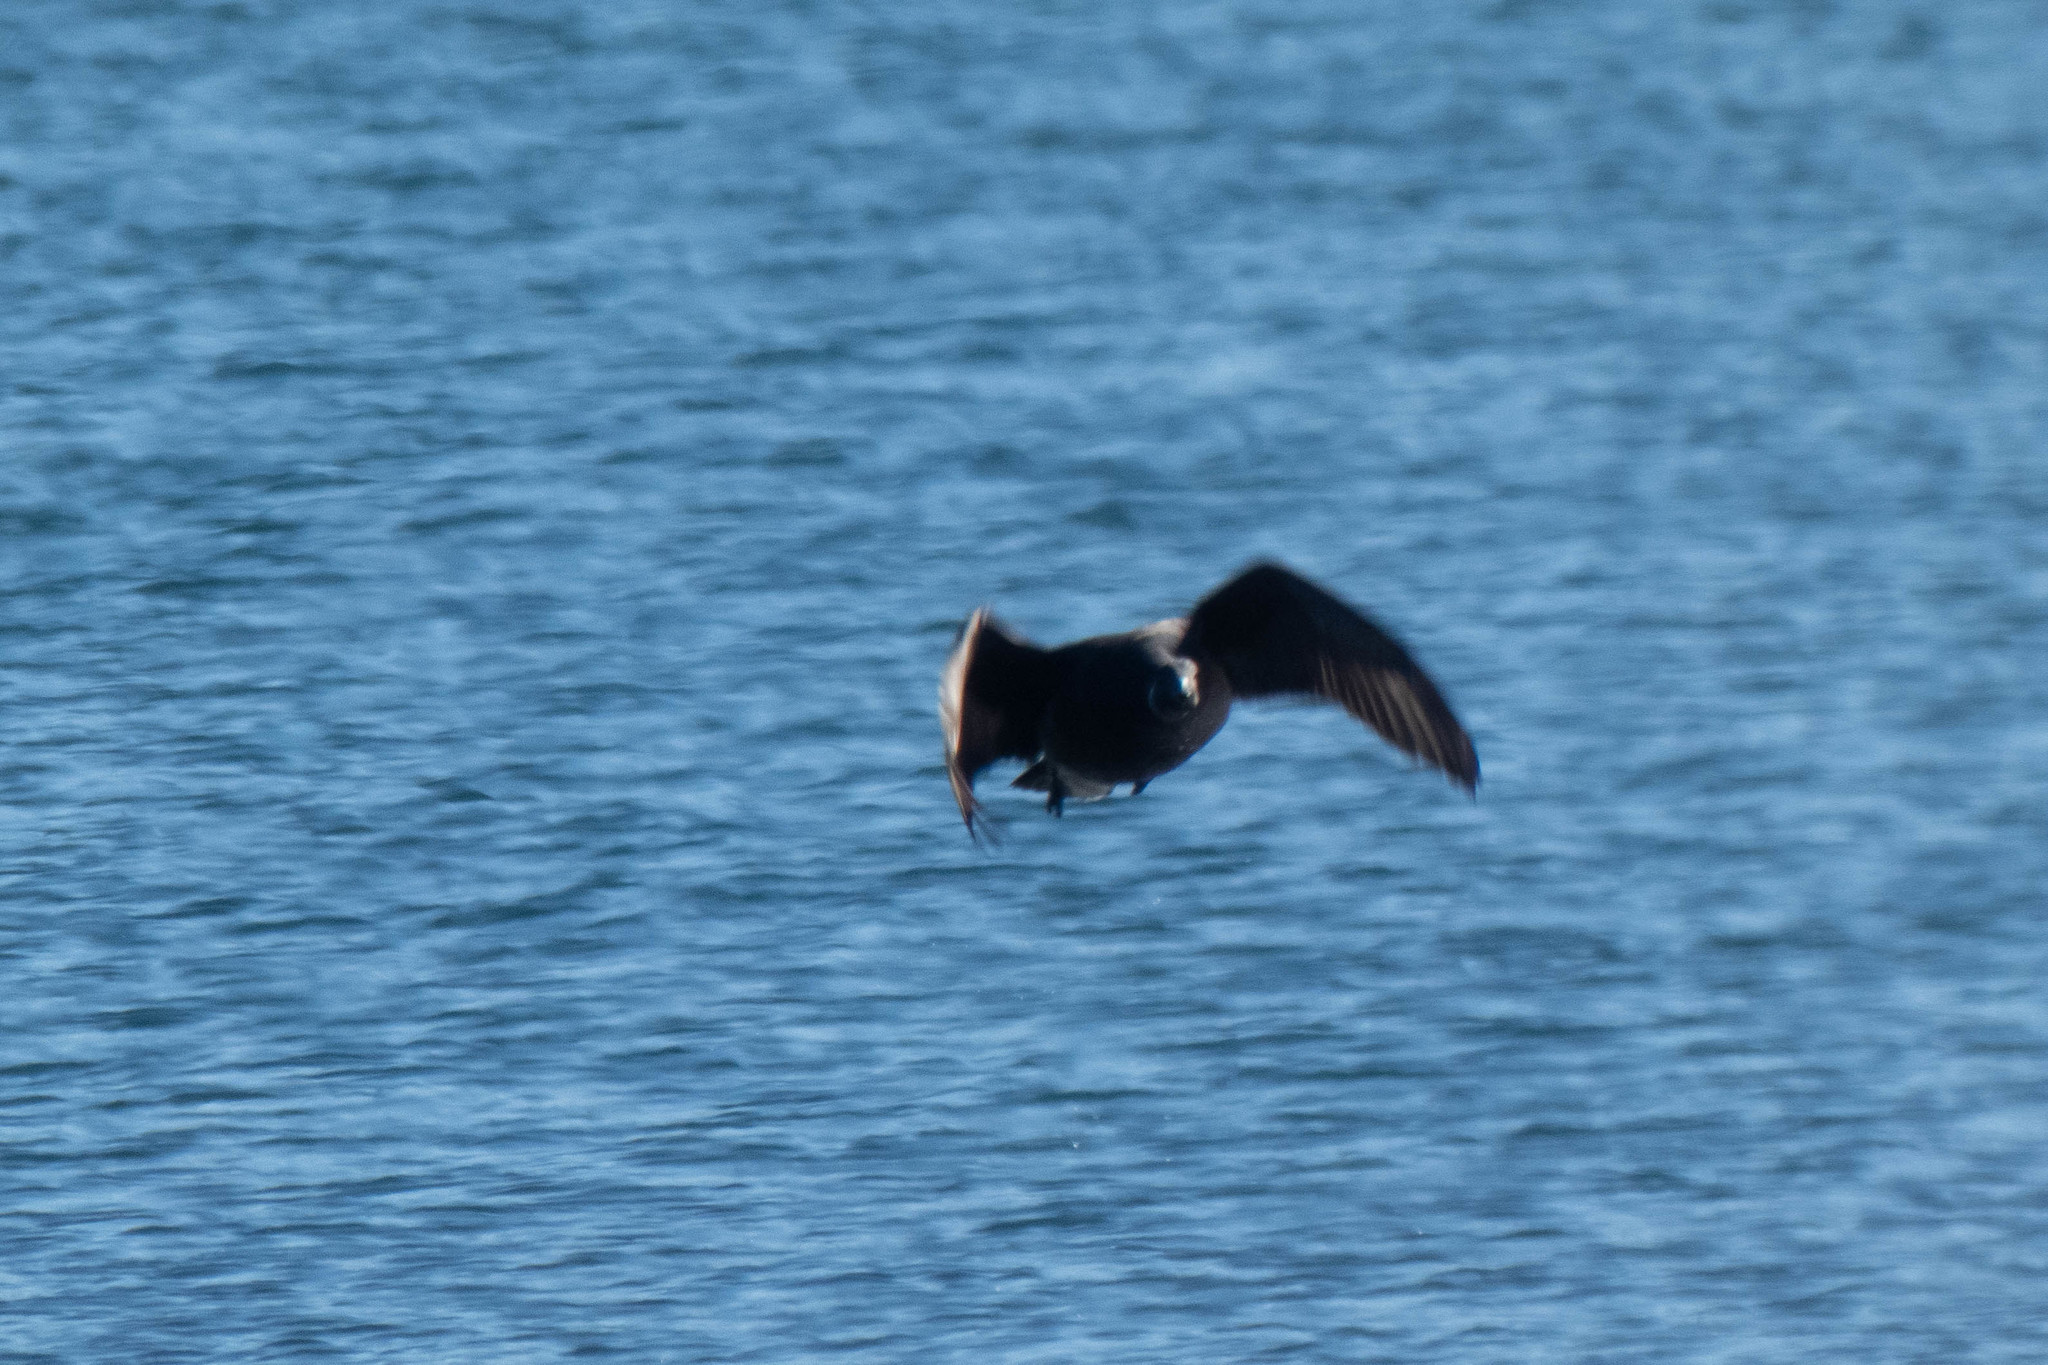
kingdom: Animalia
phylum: Chordata
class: Aves
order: Anseriformes
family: Anatidae
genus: Branta
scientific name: Branta bernicla
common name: Brant goose
